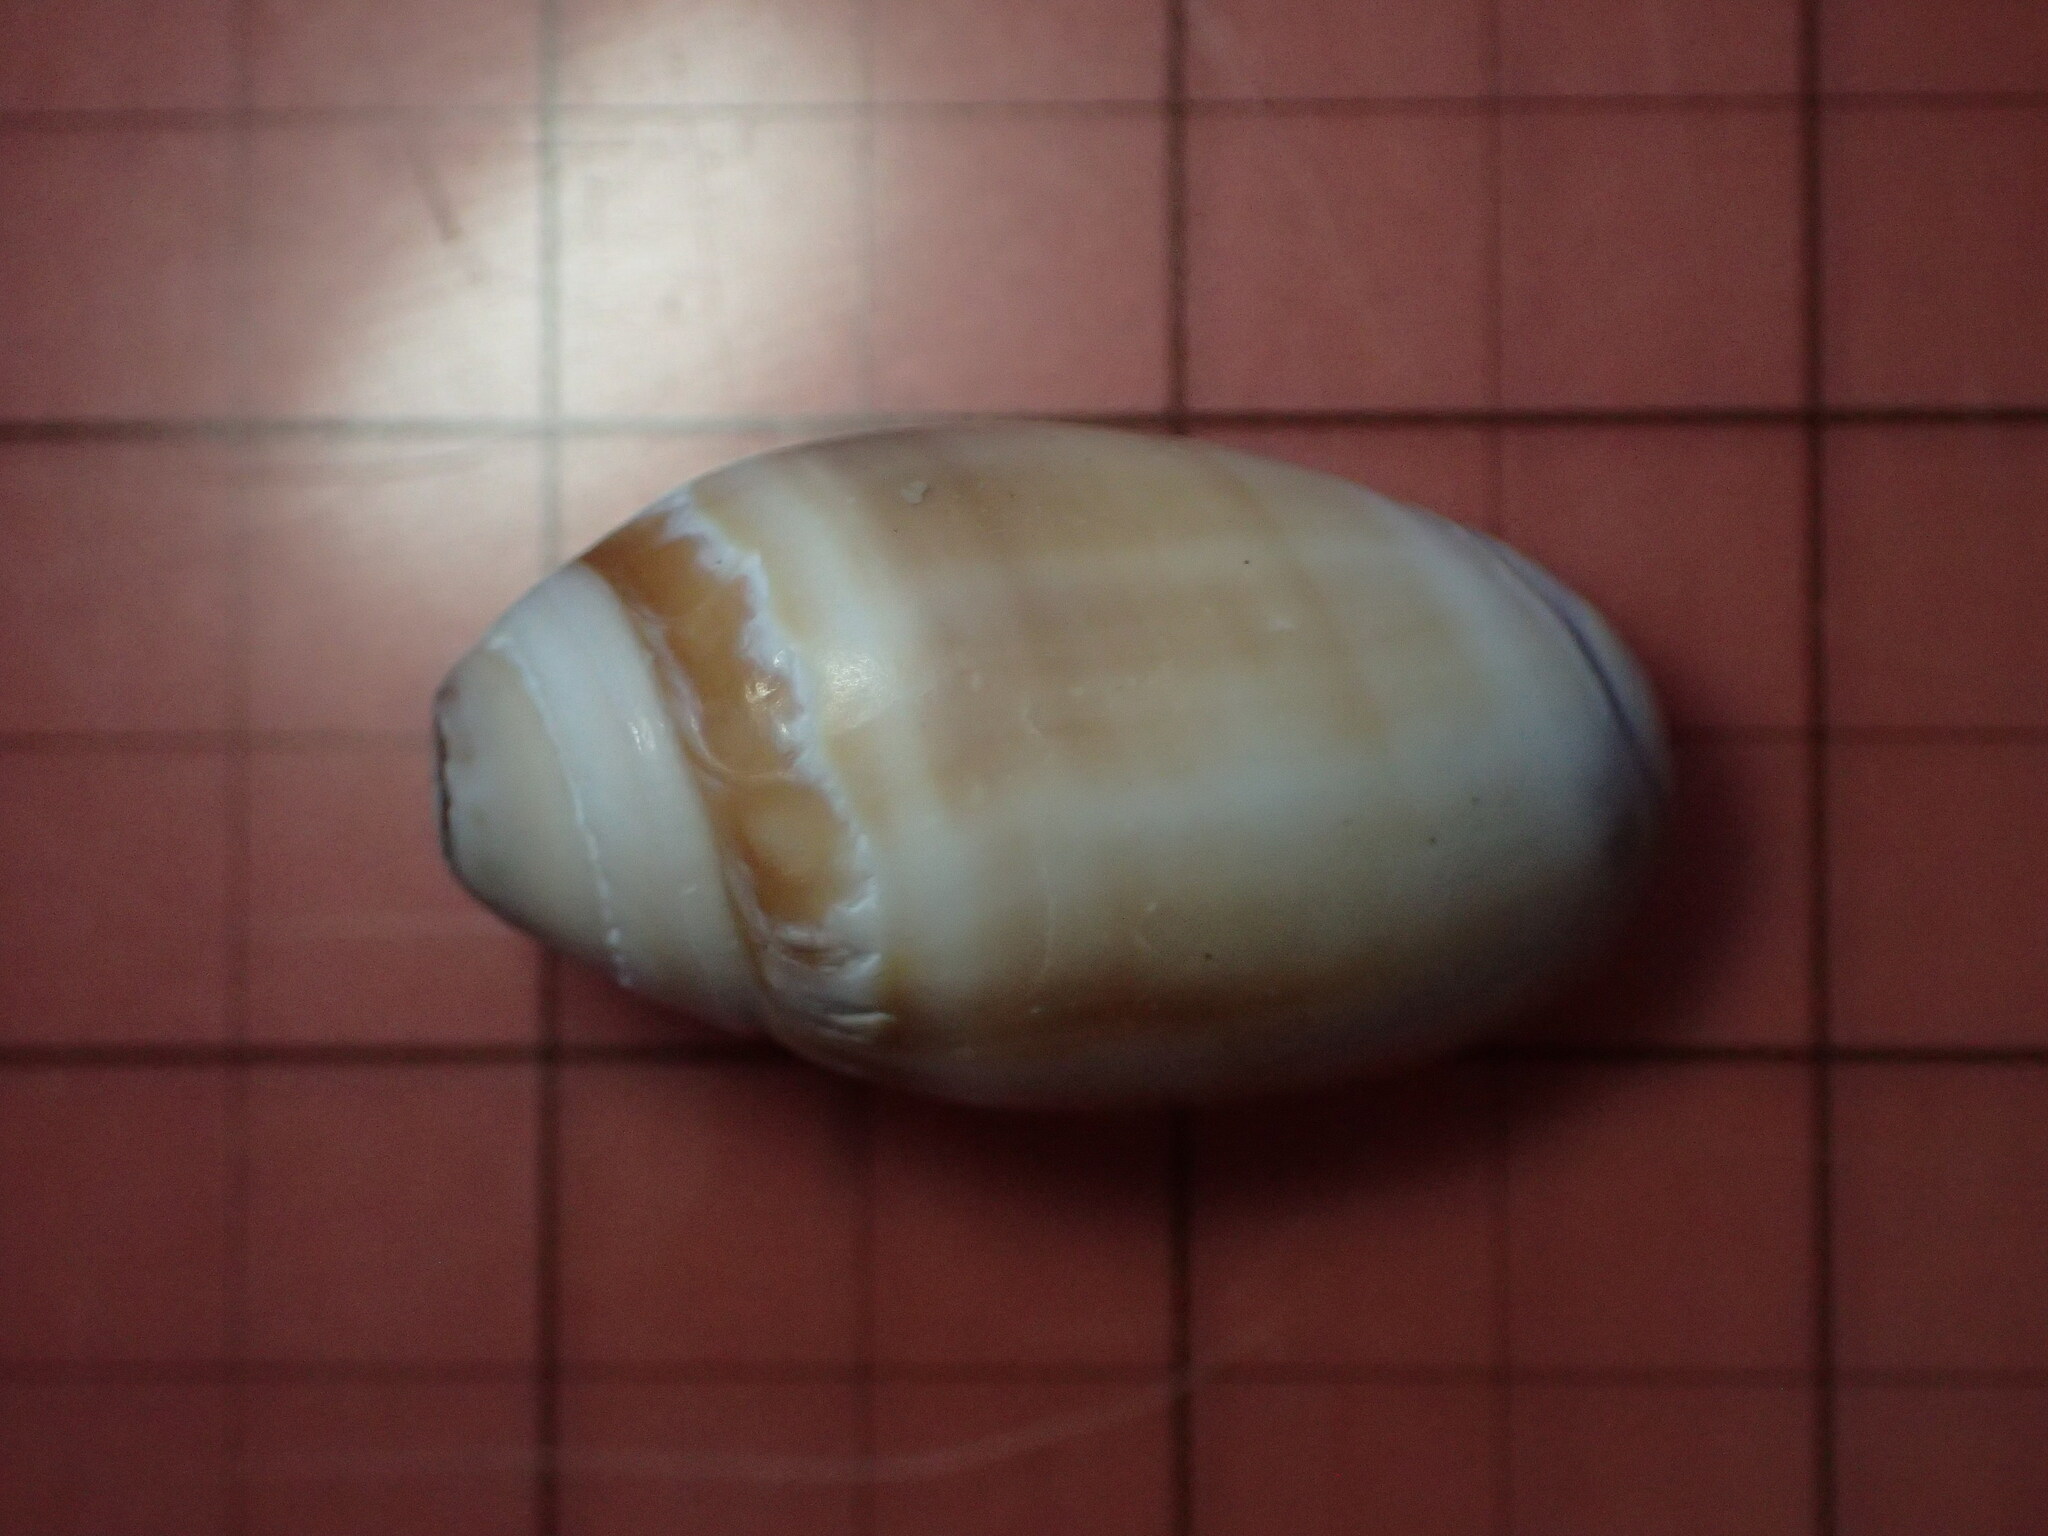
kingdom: Animalia
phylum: Mollusca
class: Gastropoda
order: Neogastropoda
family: Olividae
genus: Callianax
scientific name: Callianax biplicata
